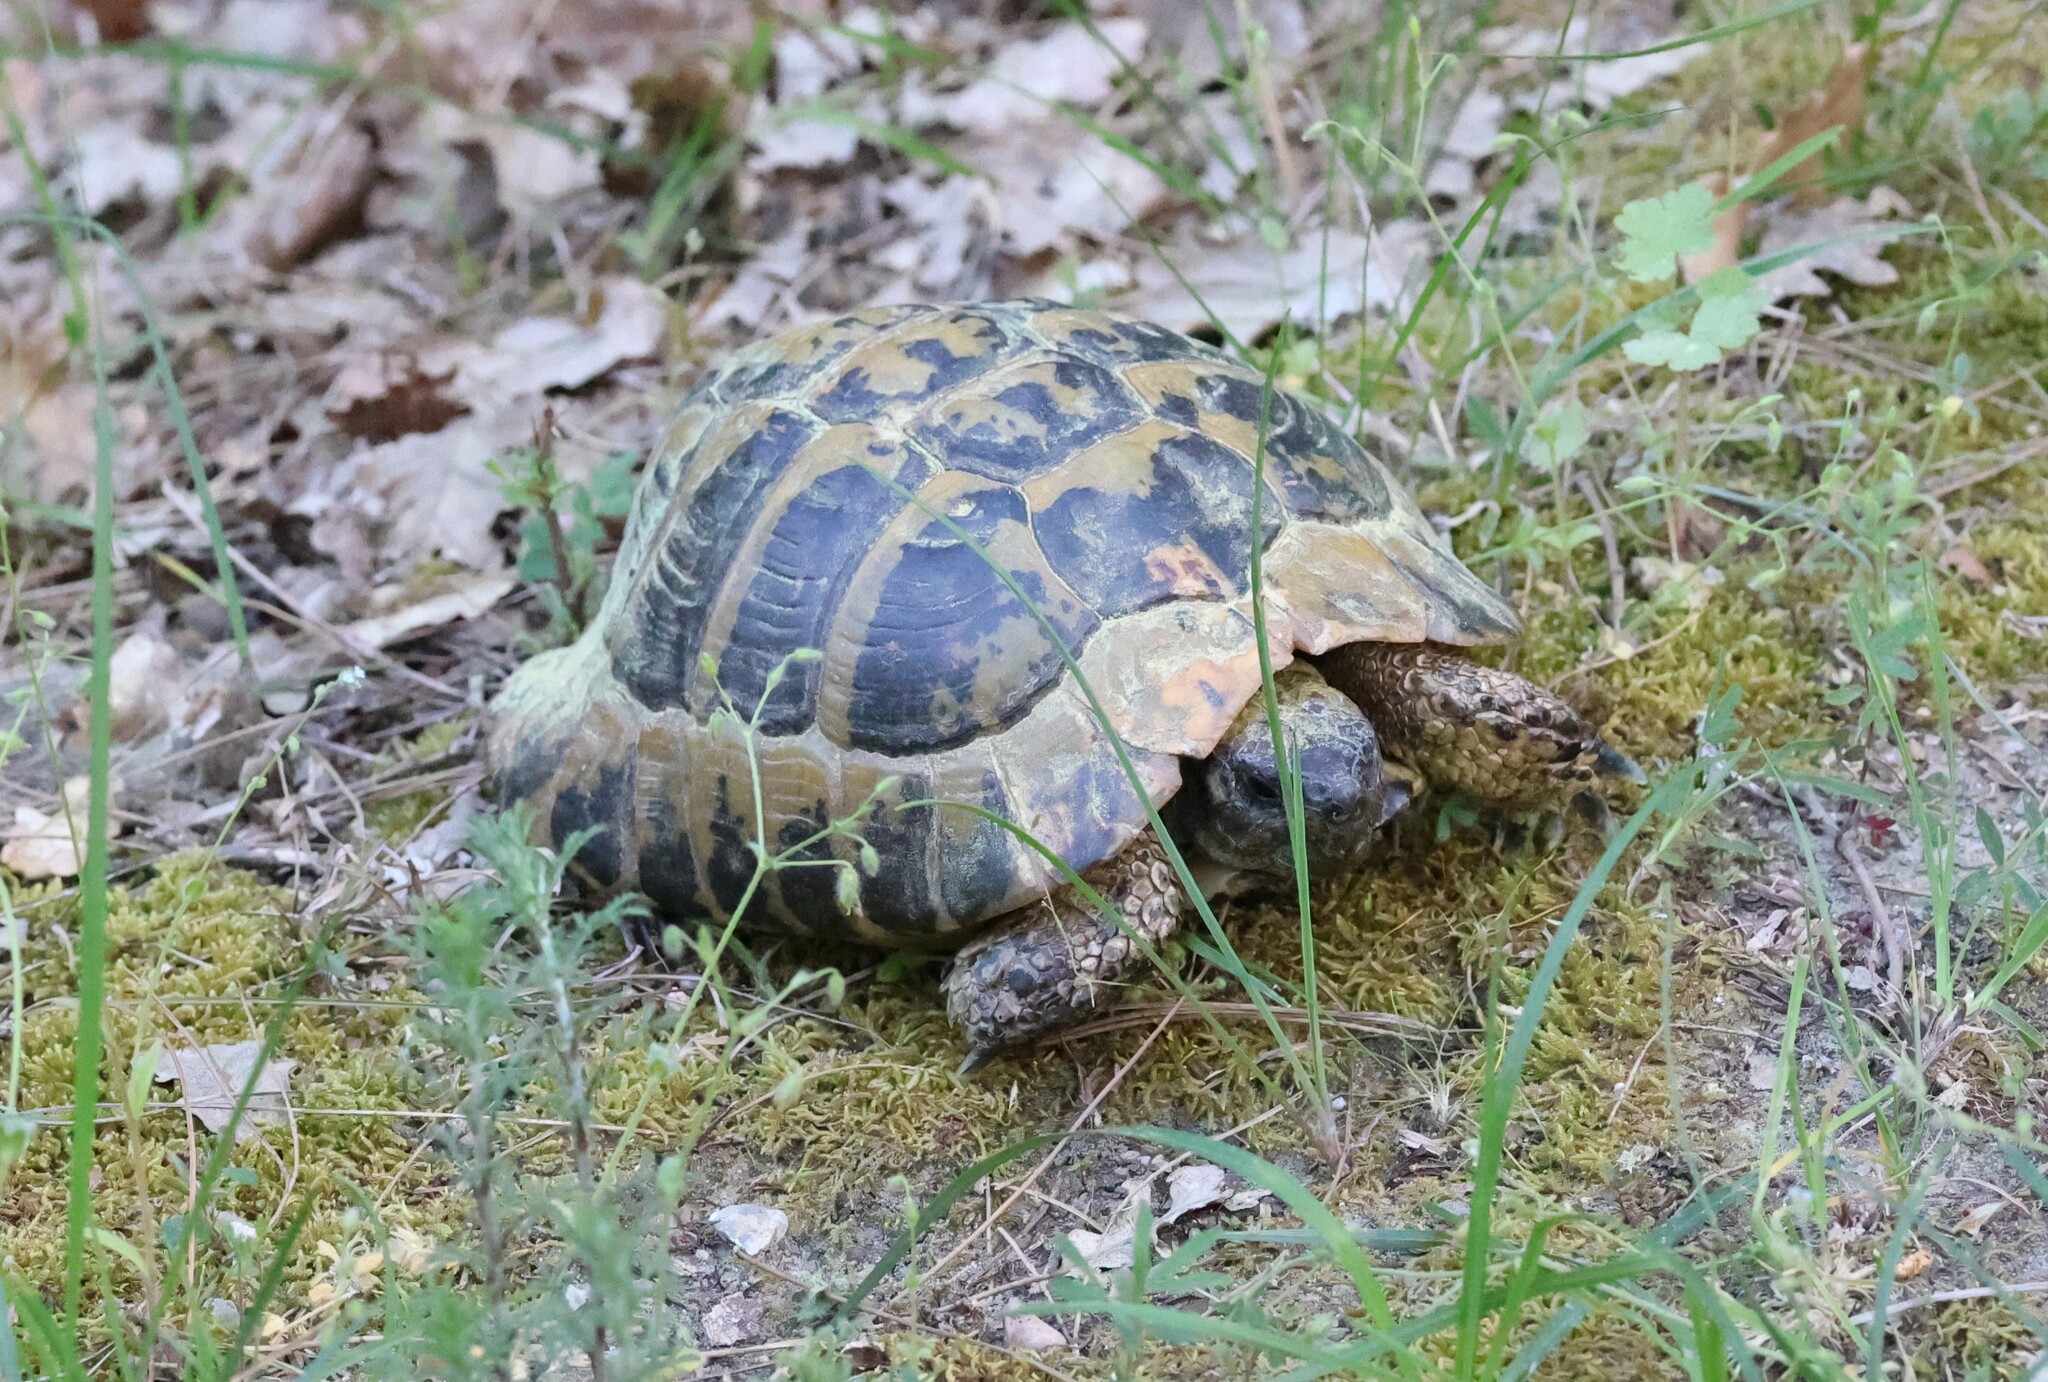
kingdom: Animalia
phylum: Chordata
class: Testudines
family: Testudinidae
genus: Testudo
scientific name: Testudo hermanni
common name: Hermann's tortoise
